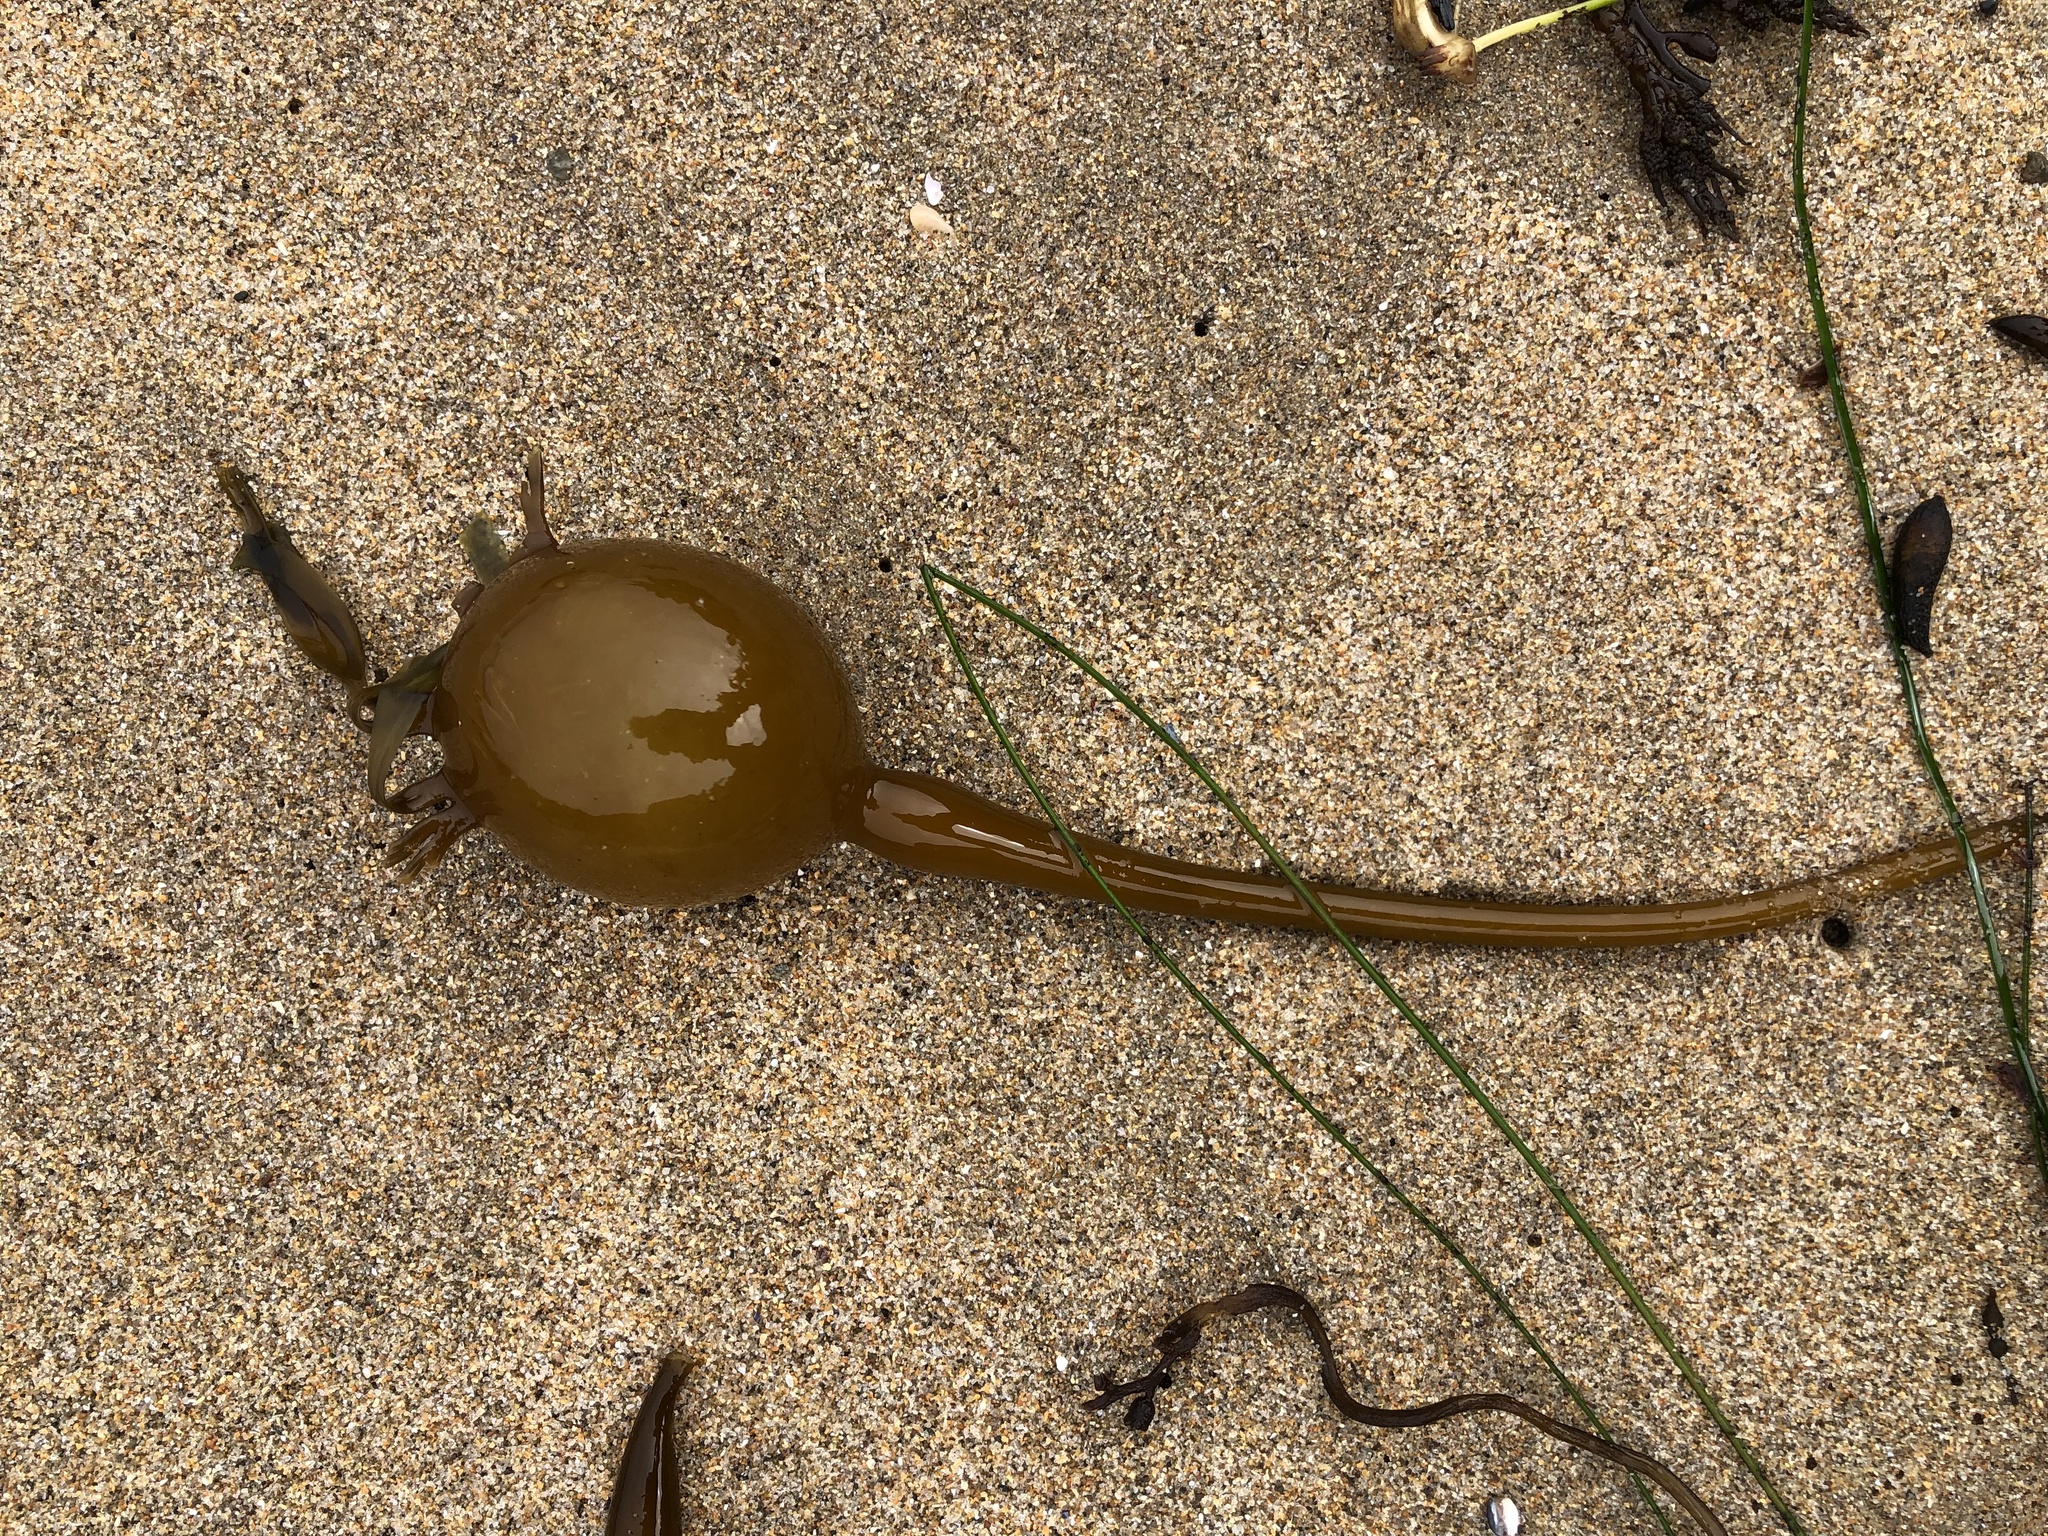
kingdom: Chromista
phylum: Ochrophyta
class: Phaeophyceae
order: Laminariales
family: Laminariaceae
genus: Nereocystis
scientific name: Nereocystis luetkeana
